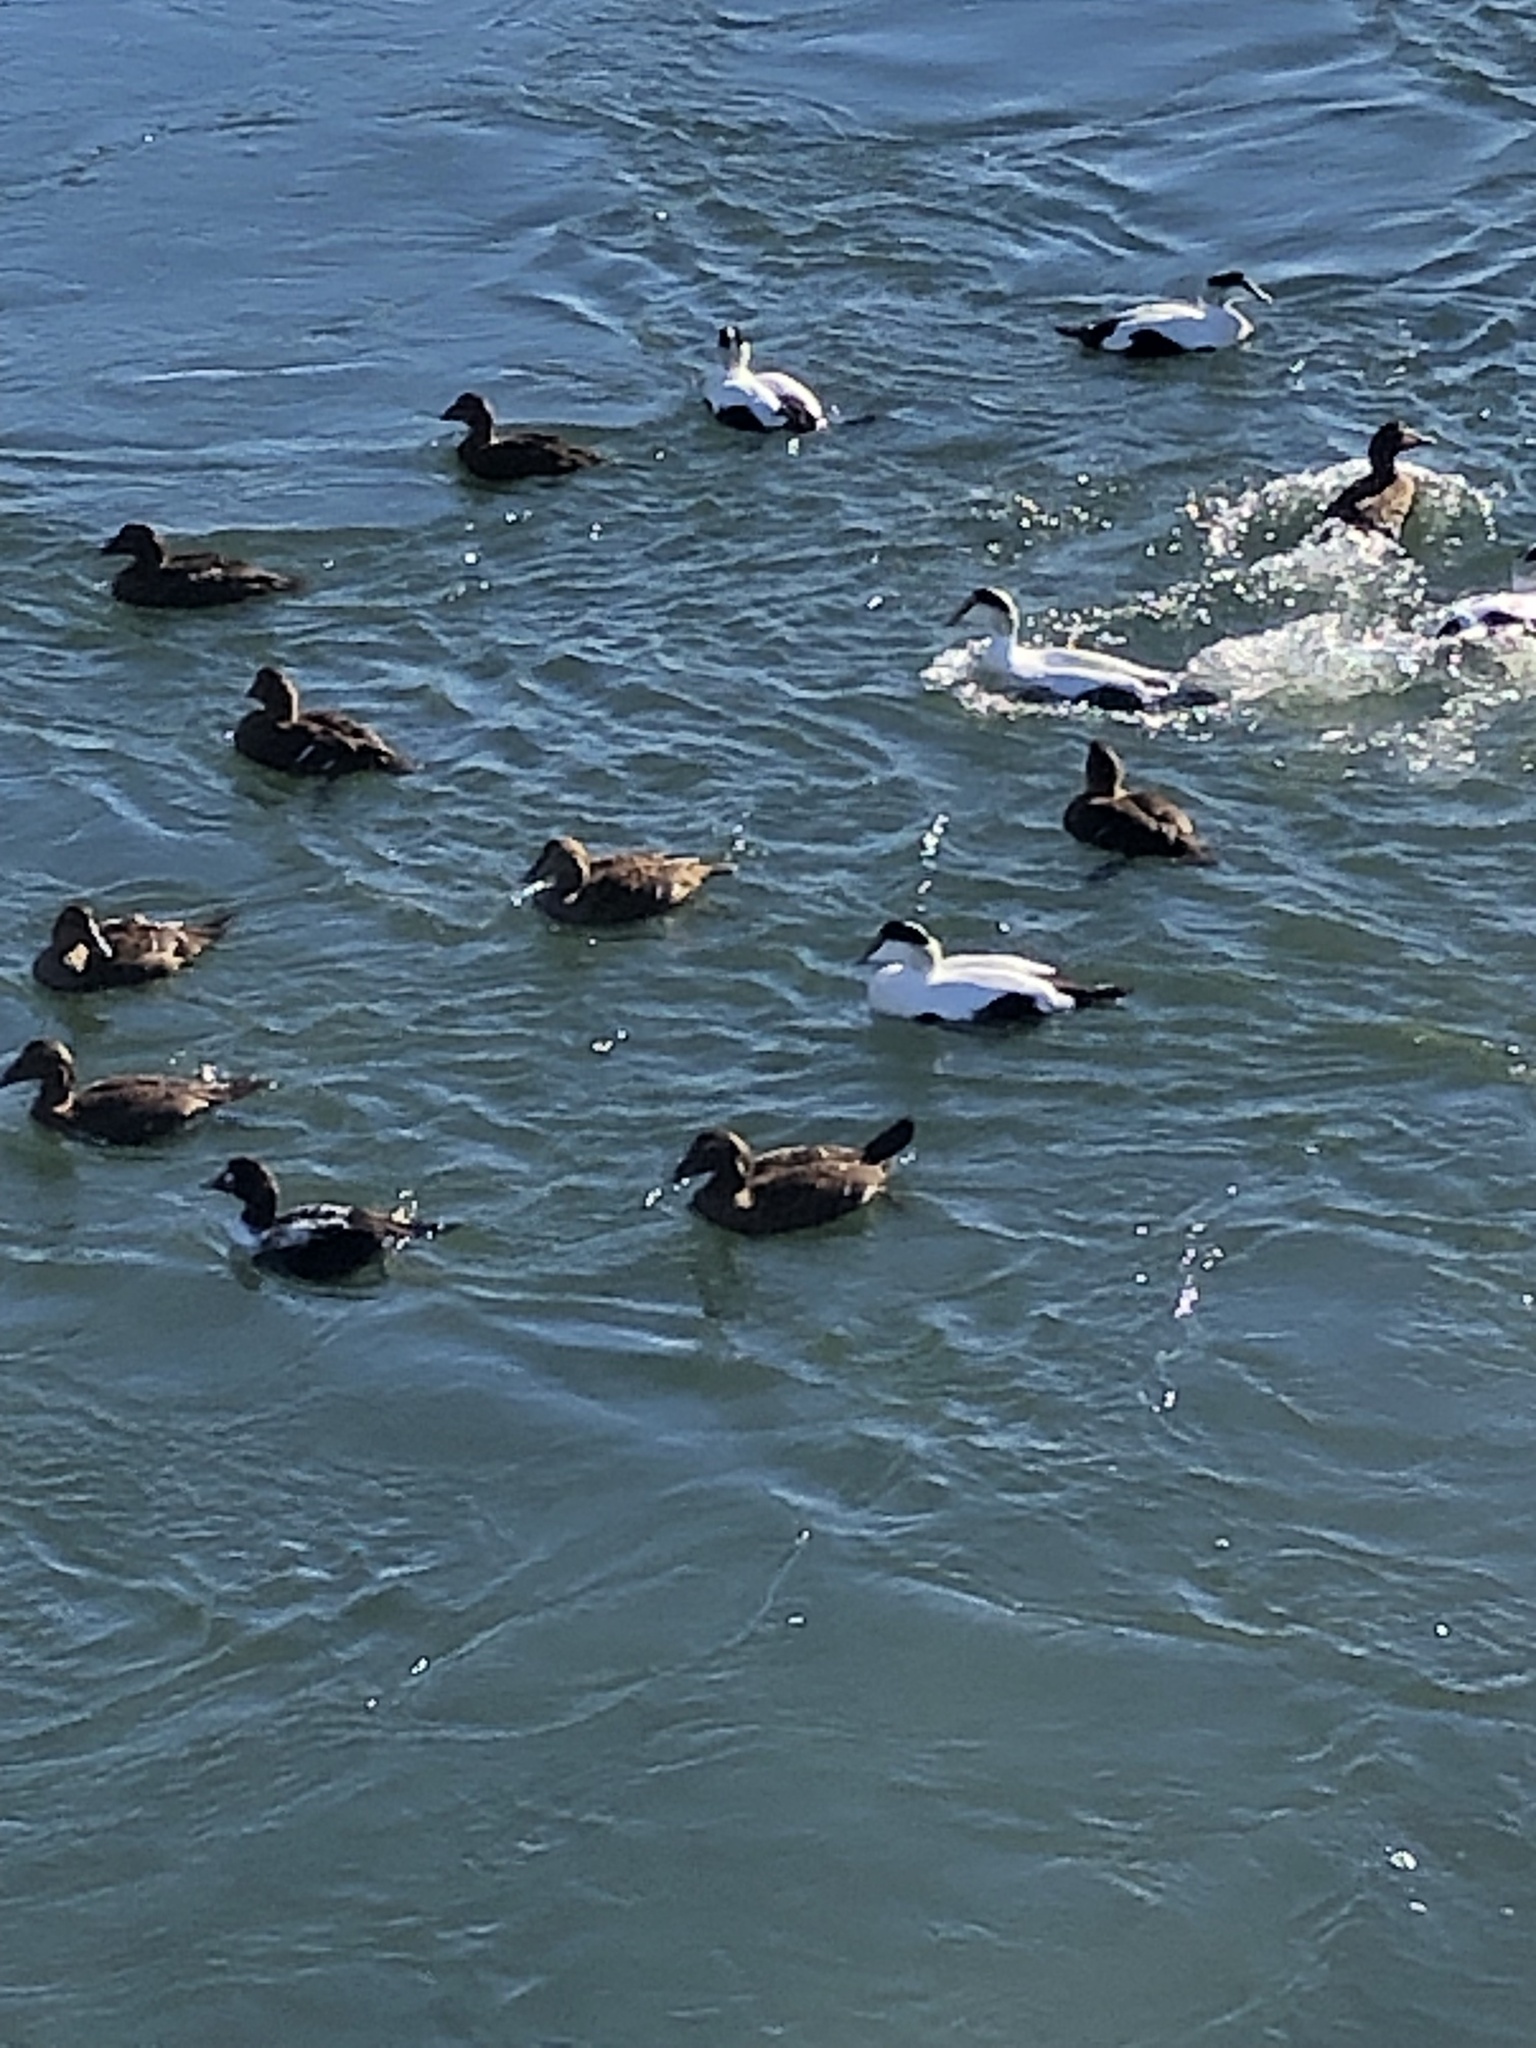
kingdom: Animalia
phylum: Chordata
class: Aves
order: Anseriformes
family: Anatidae
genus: Somateria
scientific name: Somateria mollissima
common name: Common eider
